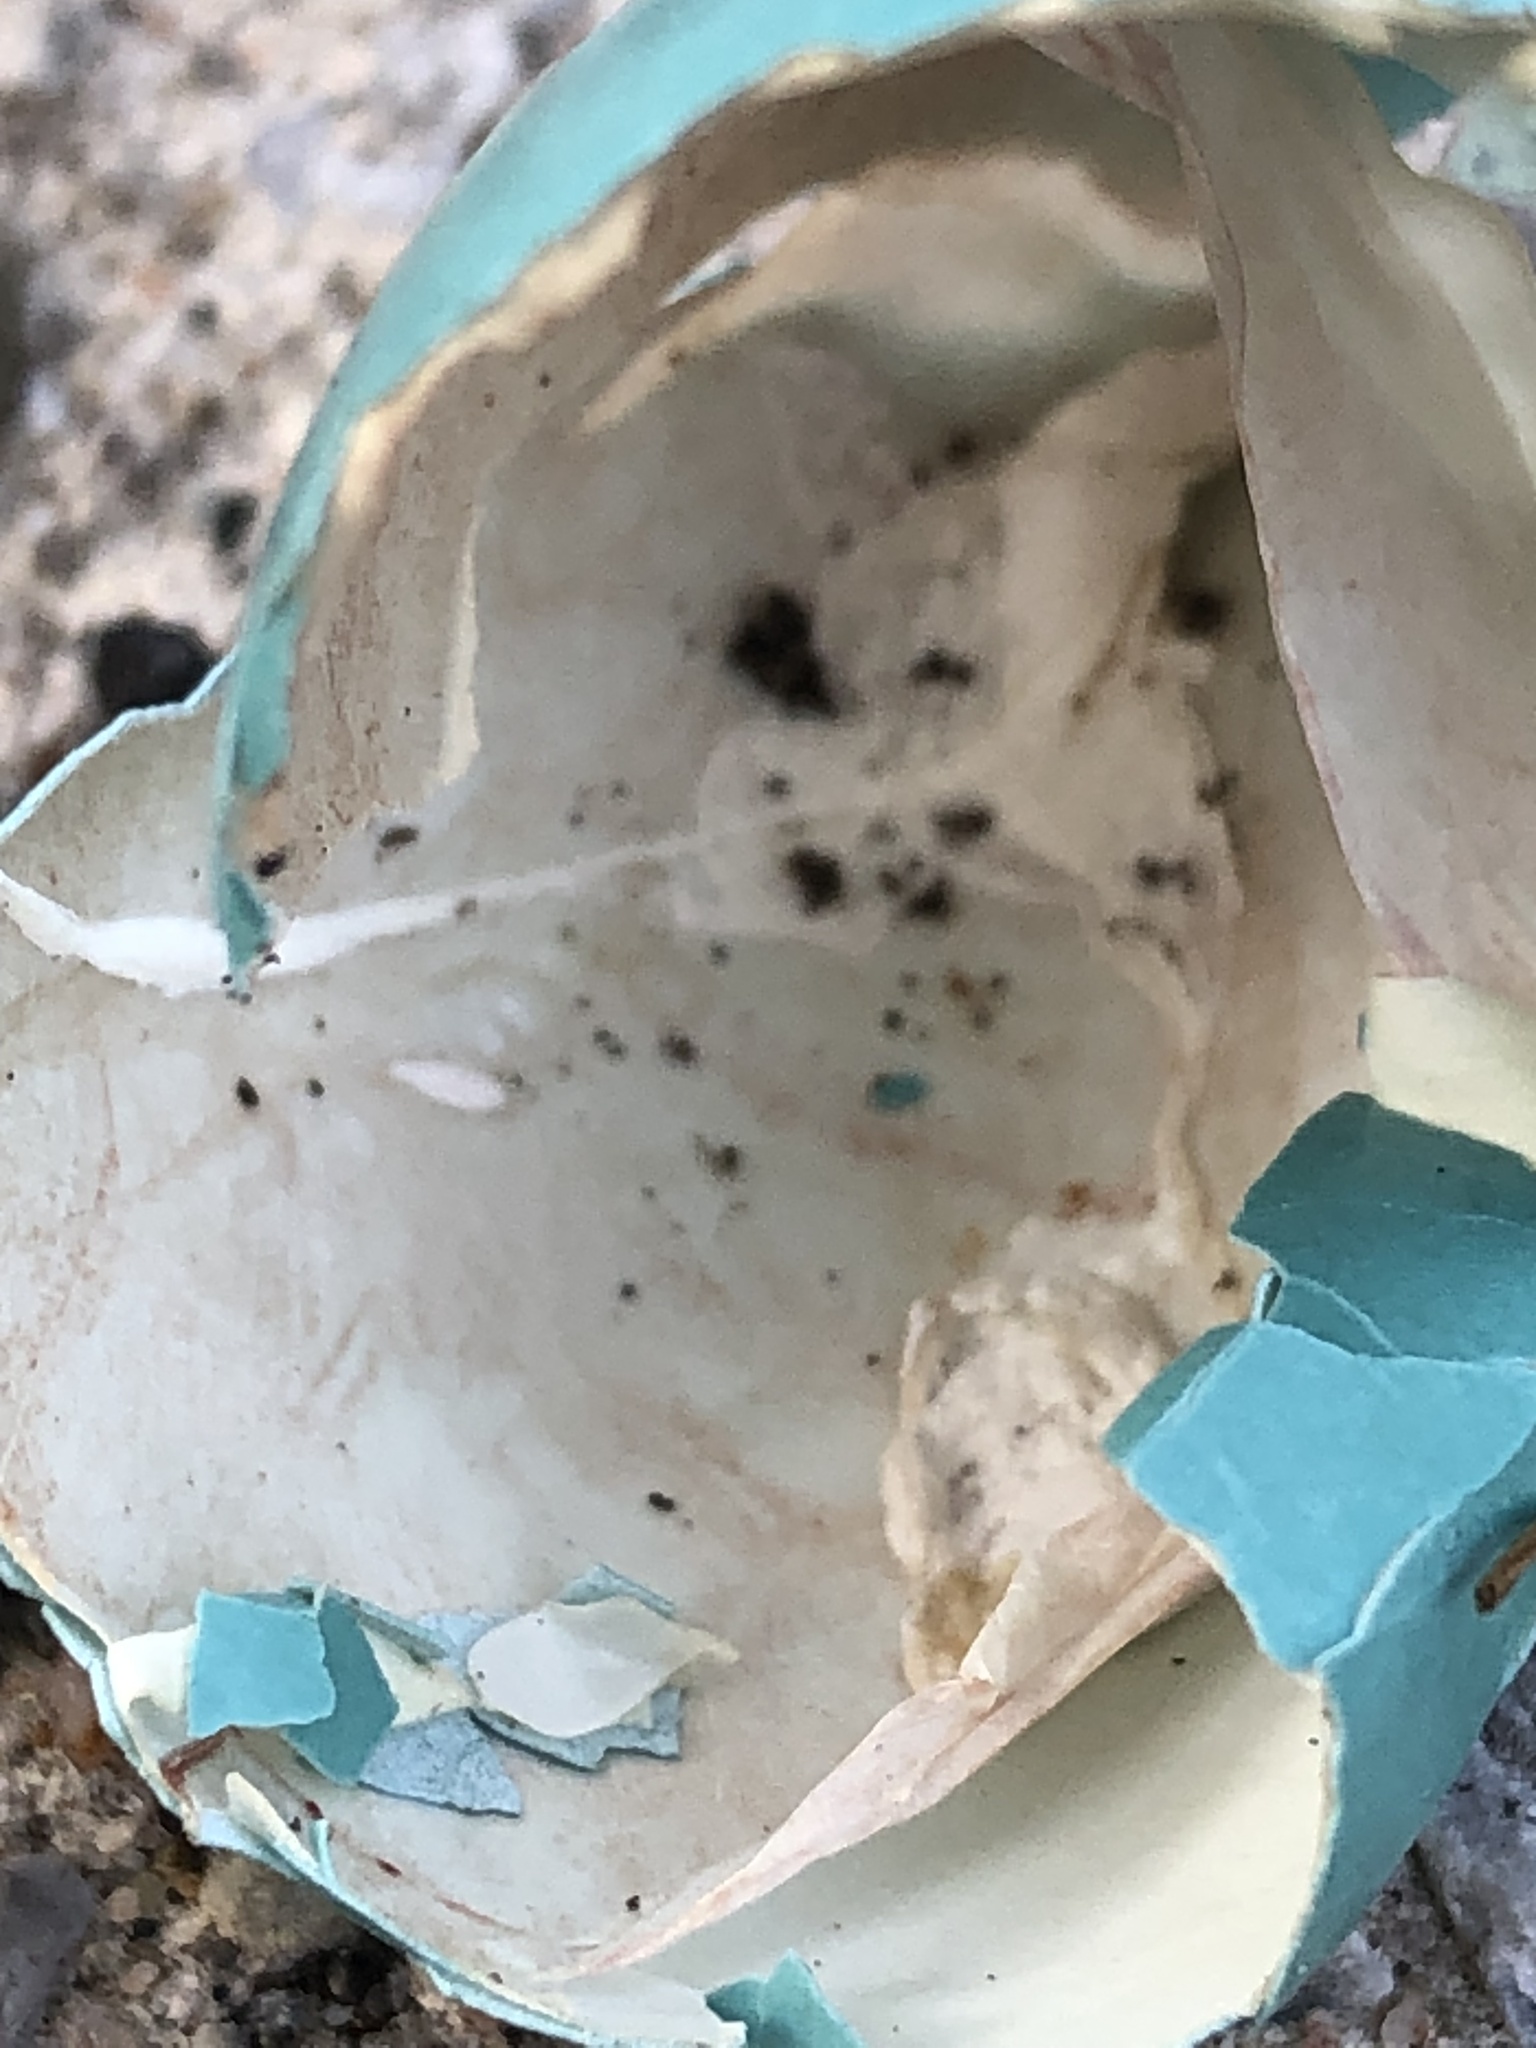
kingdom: Animalia
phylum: Chordata
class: Aves
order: Passeriformes
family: Turdidae
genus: Turdus
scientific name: Turdus migratorius
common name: American robin
